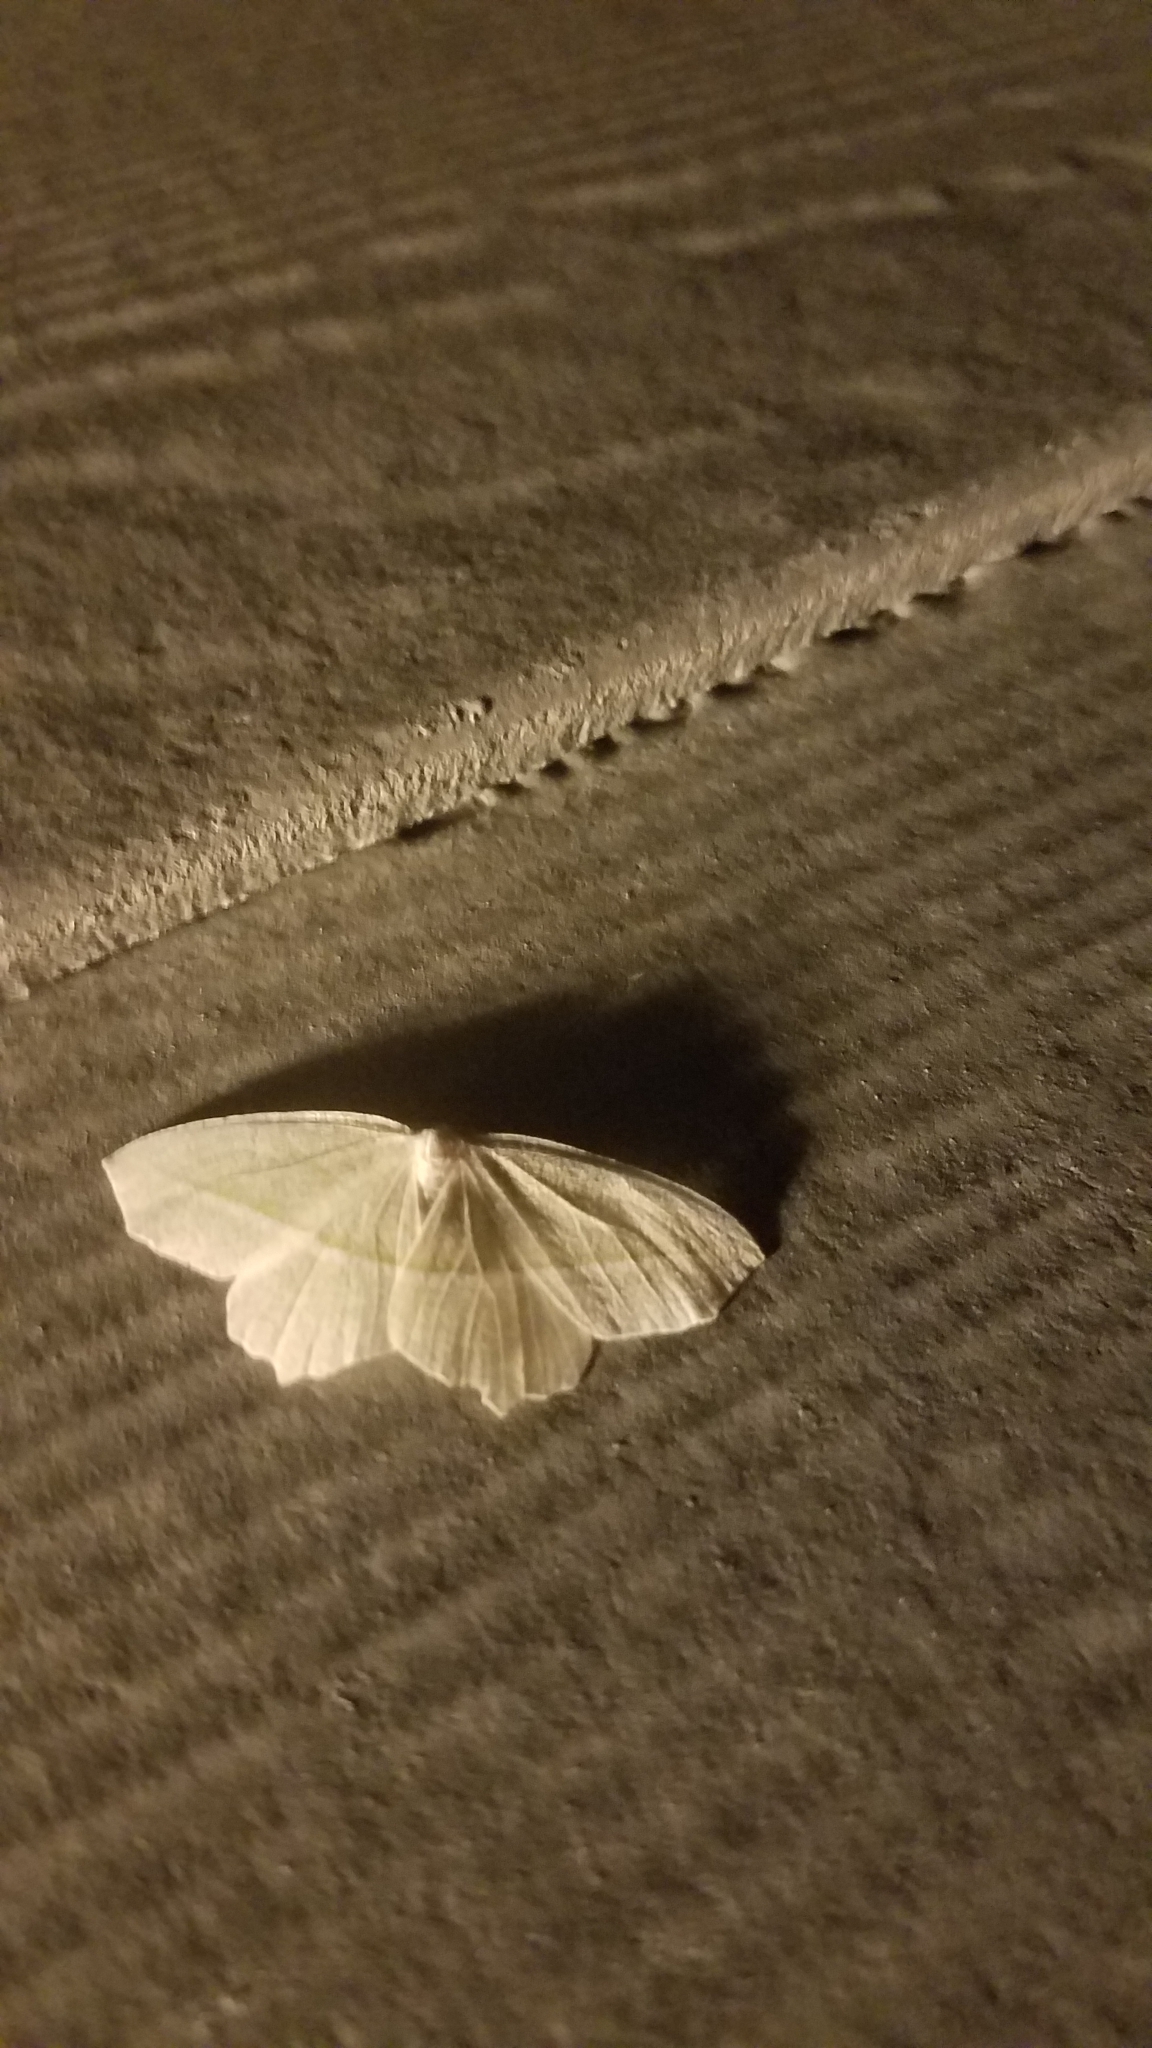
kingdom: Animalia
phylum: Arthropoda
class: Insecta
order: Lepidoptera
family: Geometridae
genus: Campaea
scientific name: Campaea perlata
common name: Fringed looper
